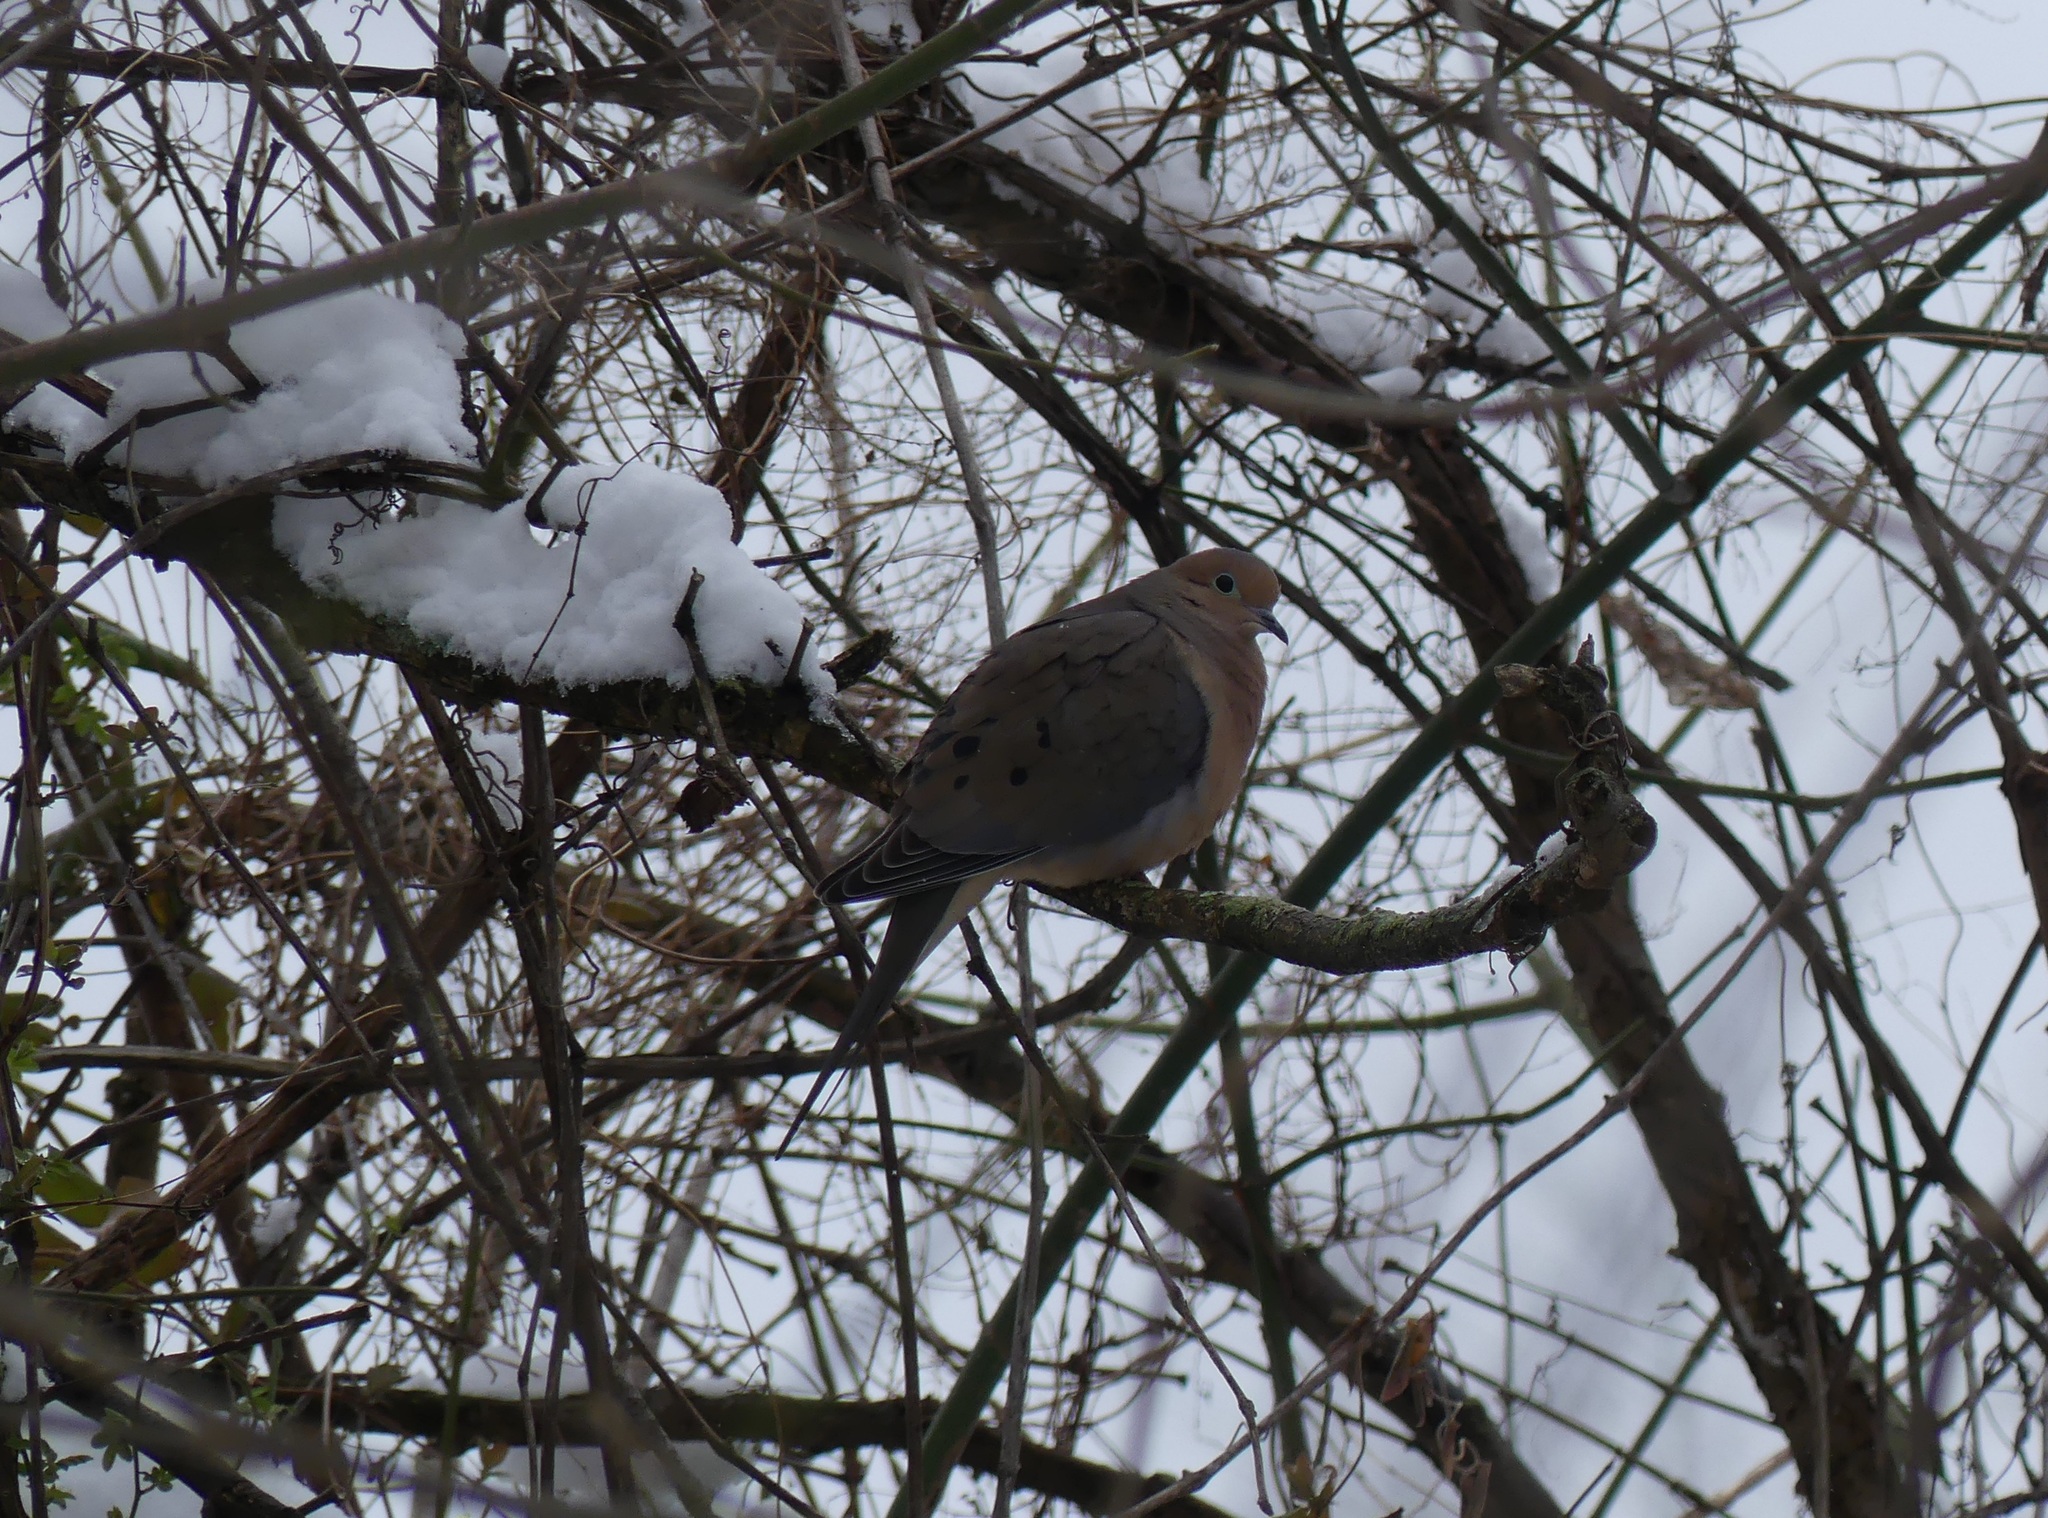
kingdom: Animalia
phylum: Chordata
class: Aves
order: Columbiformes
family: Columbidae
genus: Zenaida
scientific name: Zenaida macroura
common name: Mourning dove
